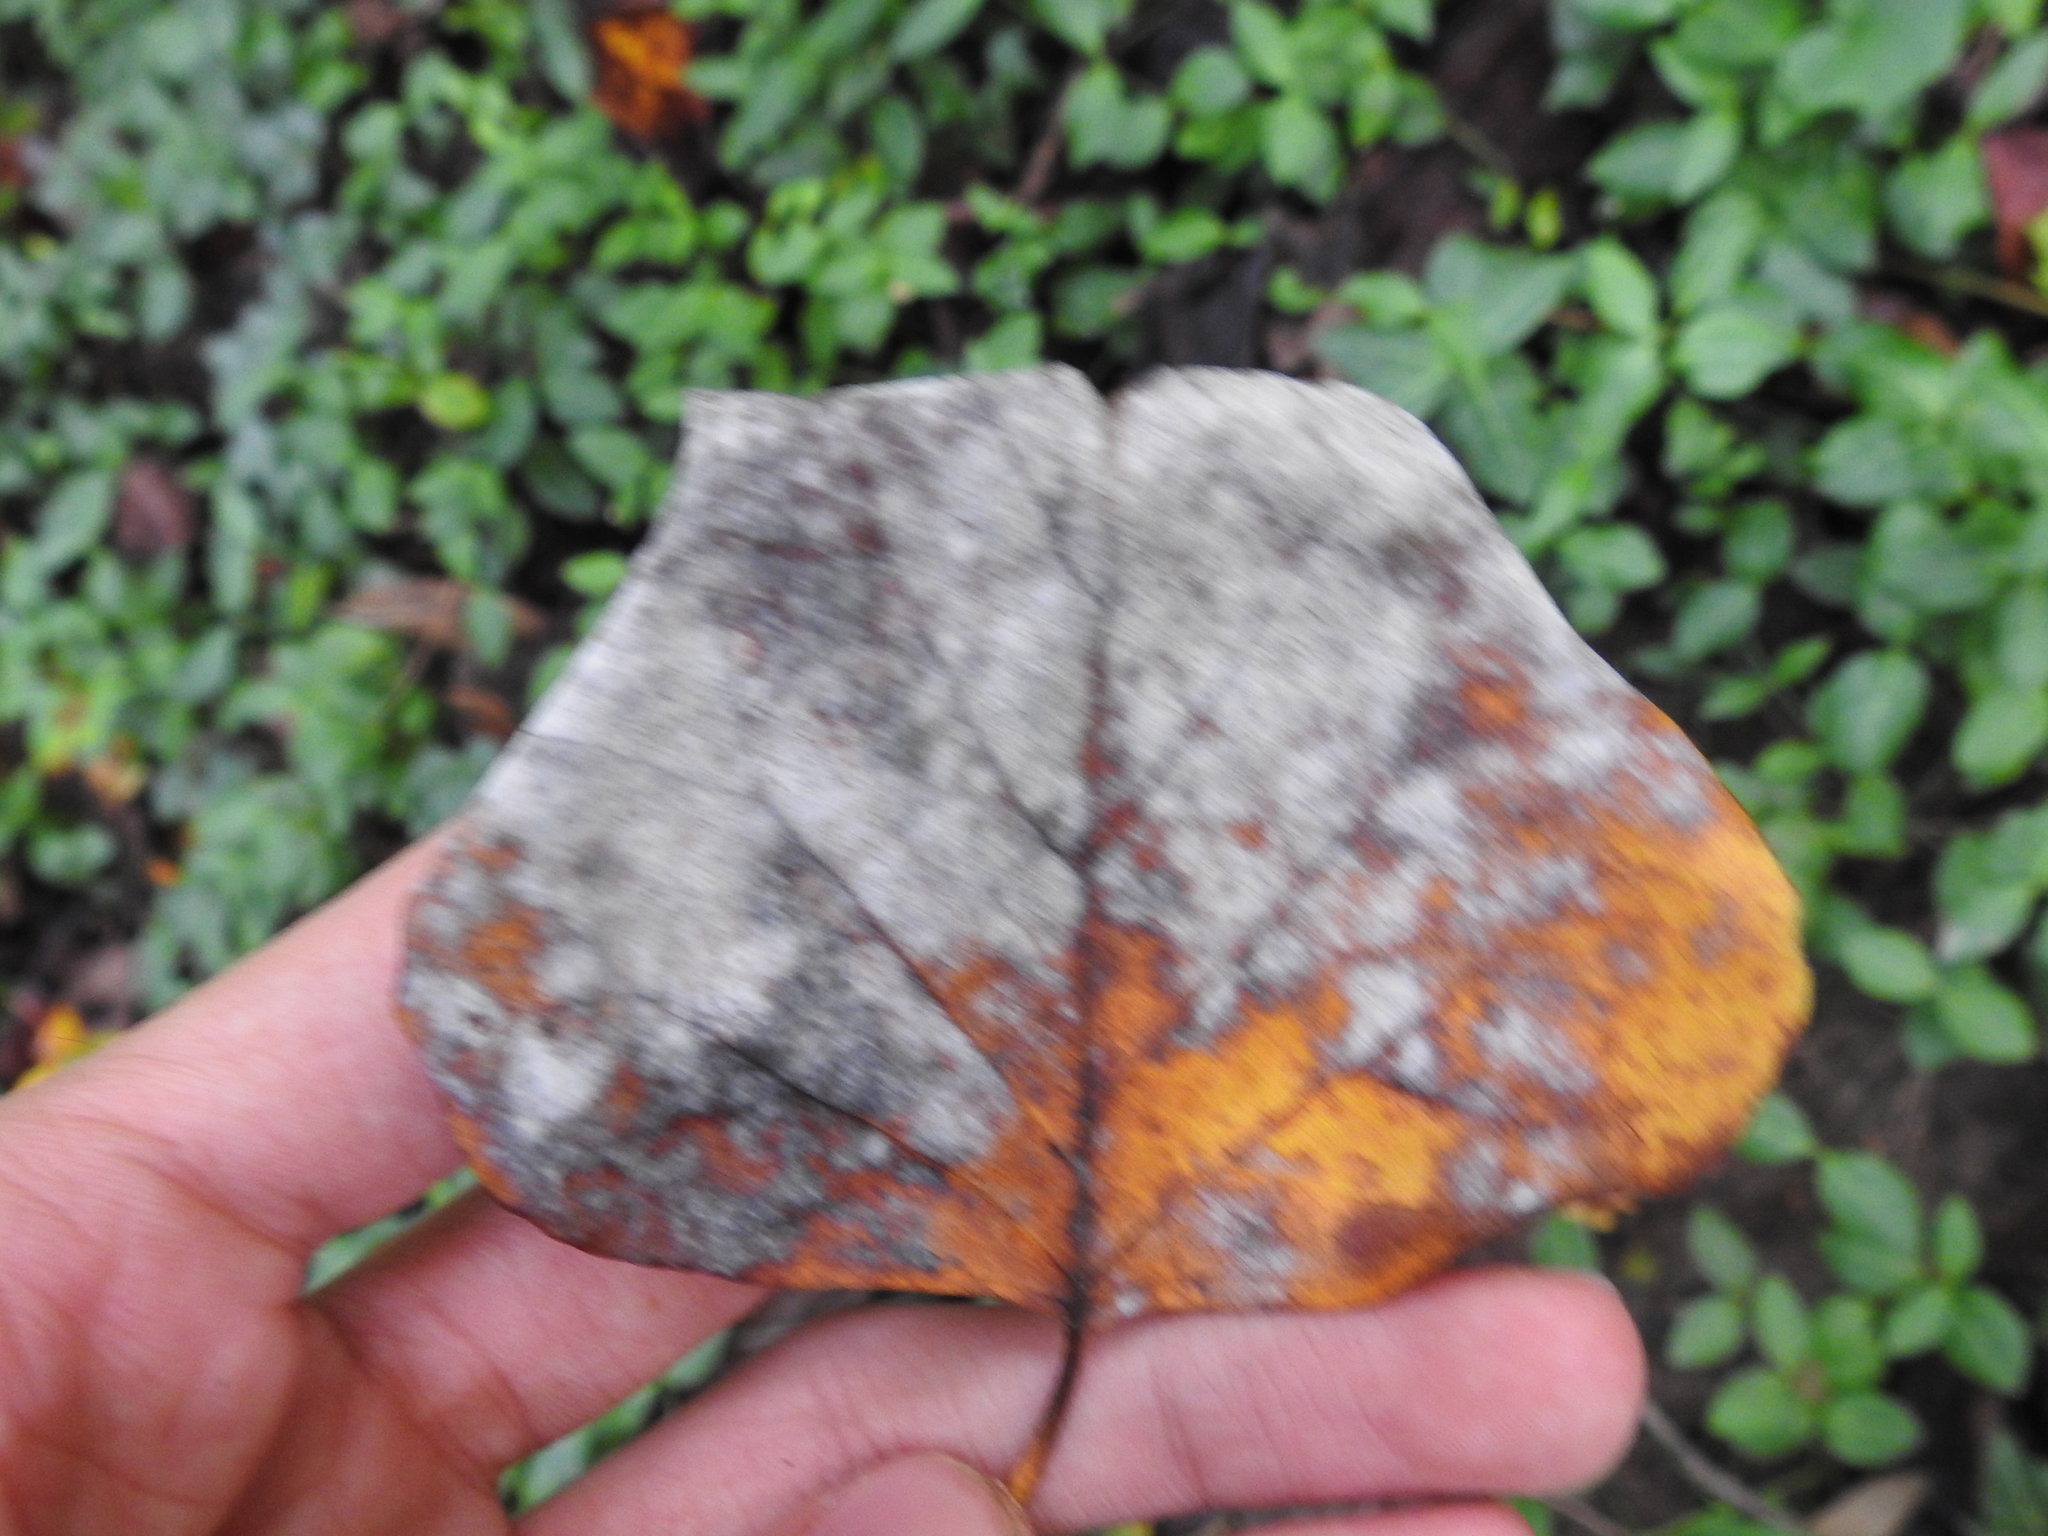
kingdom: Fungi
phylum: Ascomycota
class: Leotiomycetes
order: Helotiales
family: Erysiphaceae
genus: Erysiphe
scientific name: Erysiphe liriodendri
